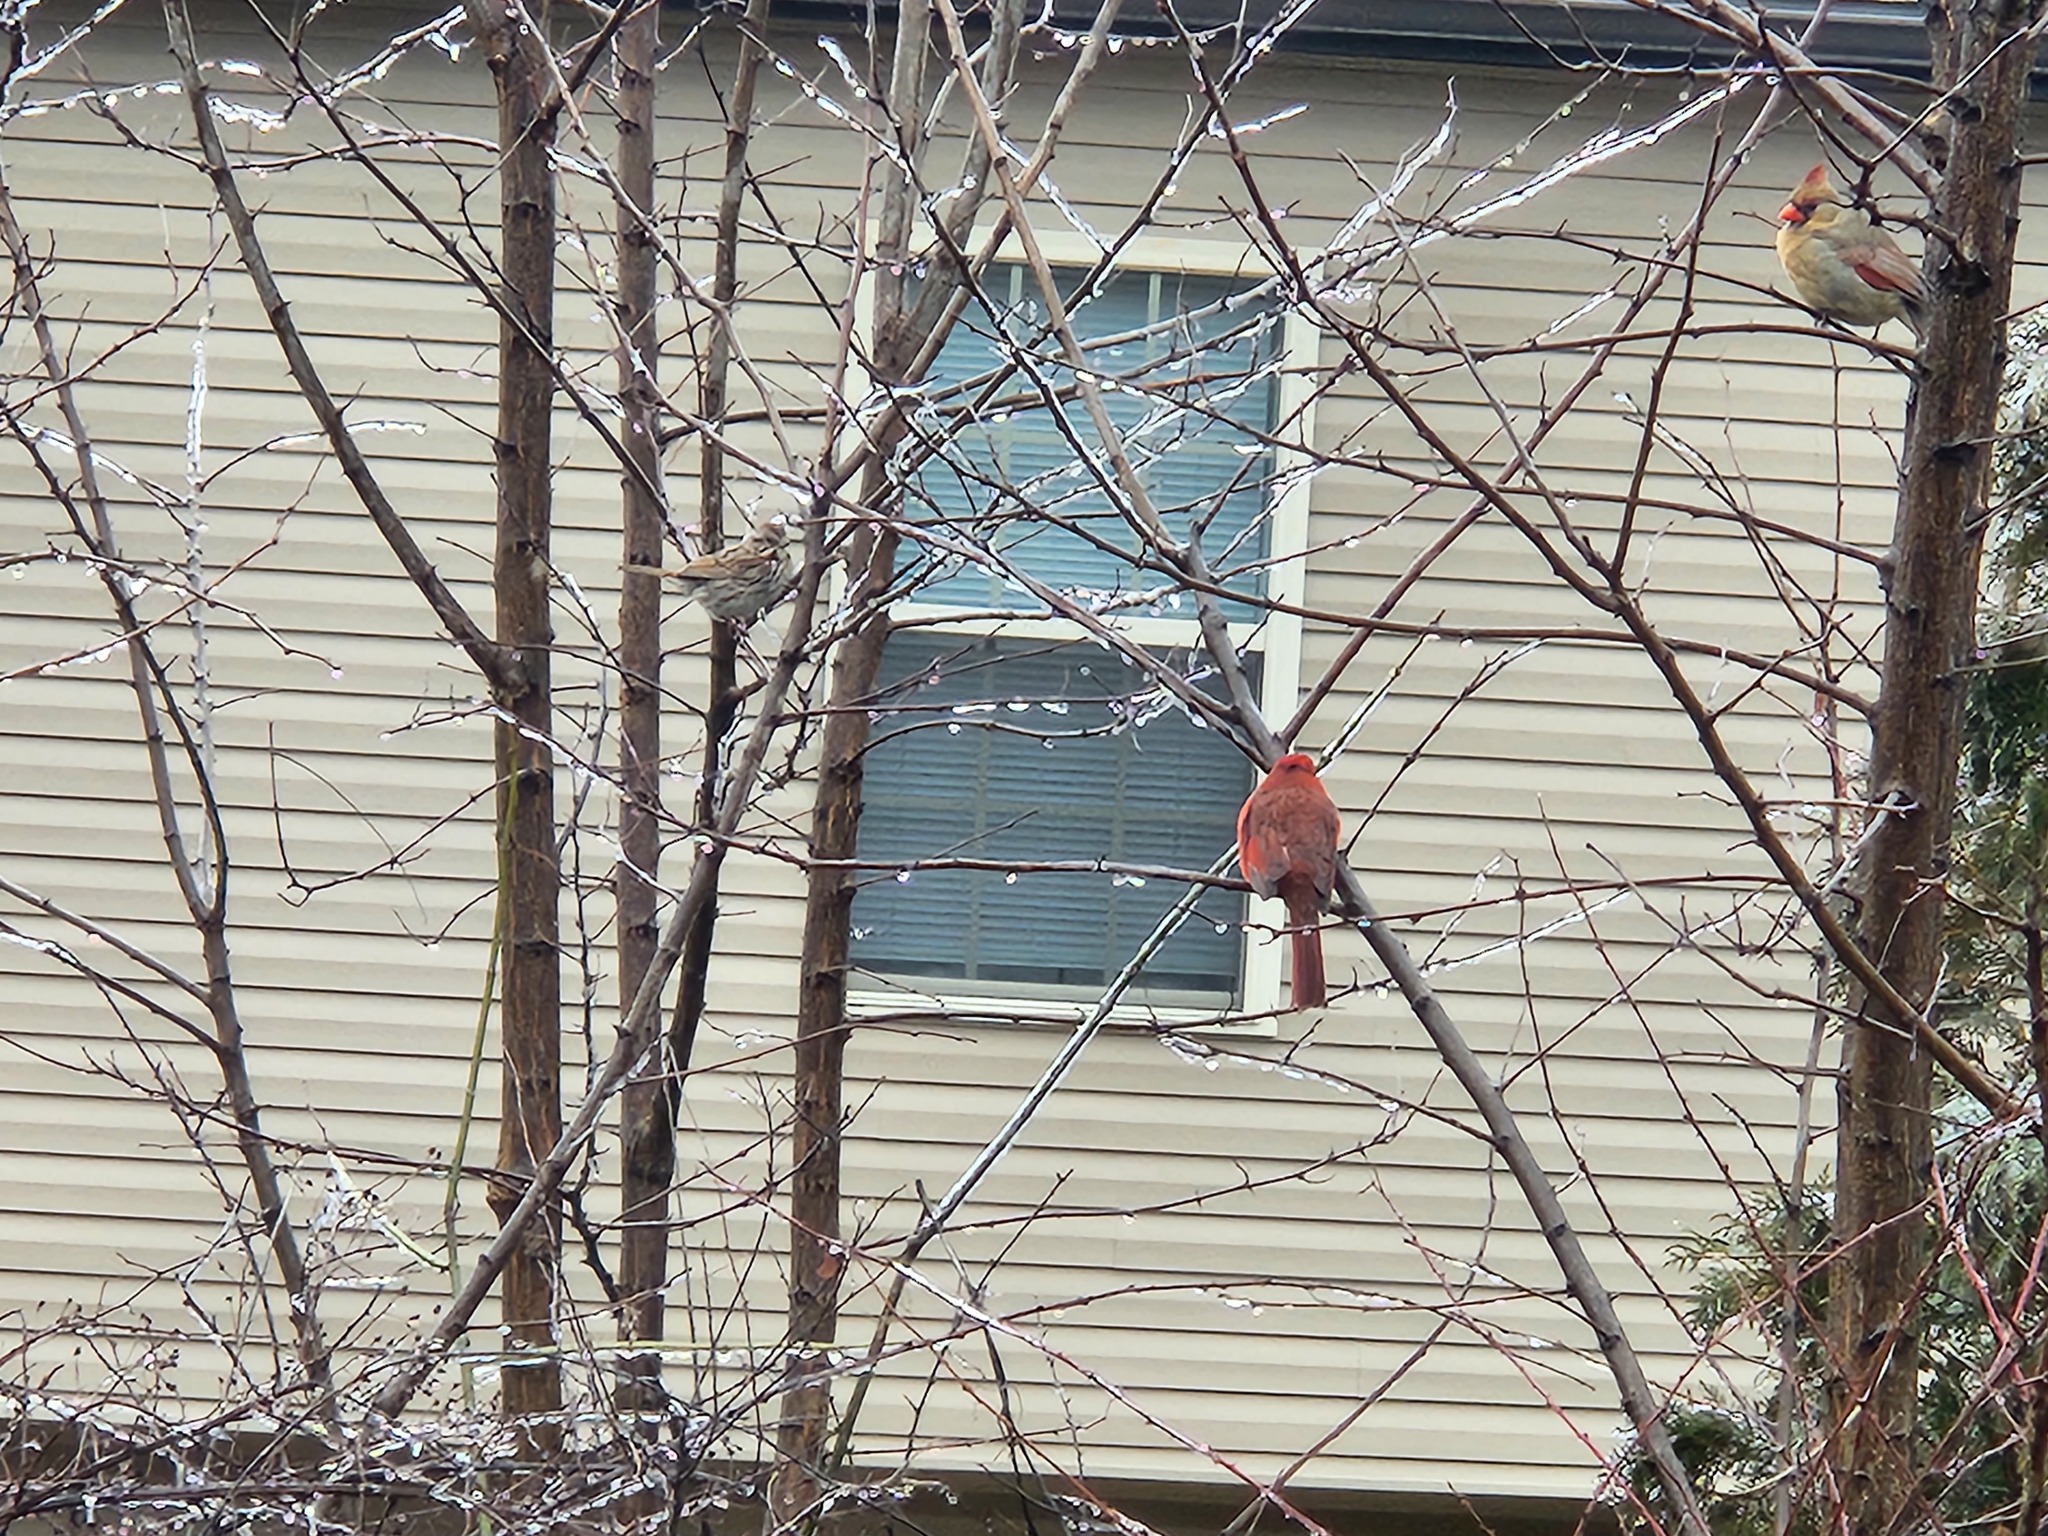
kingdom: Animalia
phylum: Chordata
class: Aves
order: Passeriformes
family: Passerellidae
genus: Melospiza
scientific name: Melospiza melodia
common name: Song sparrow
